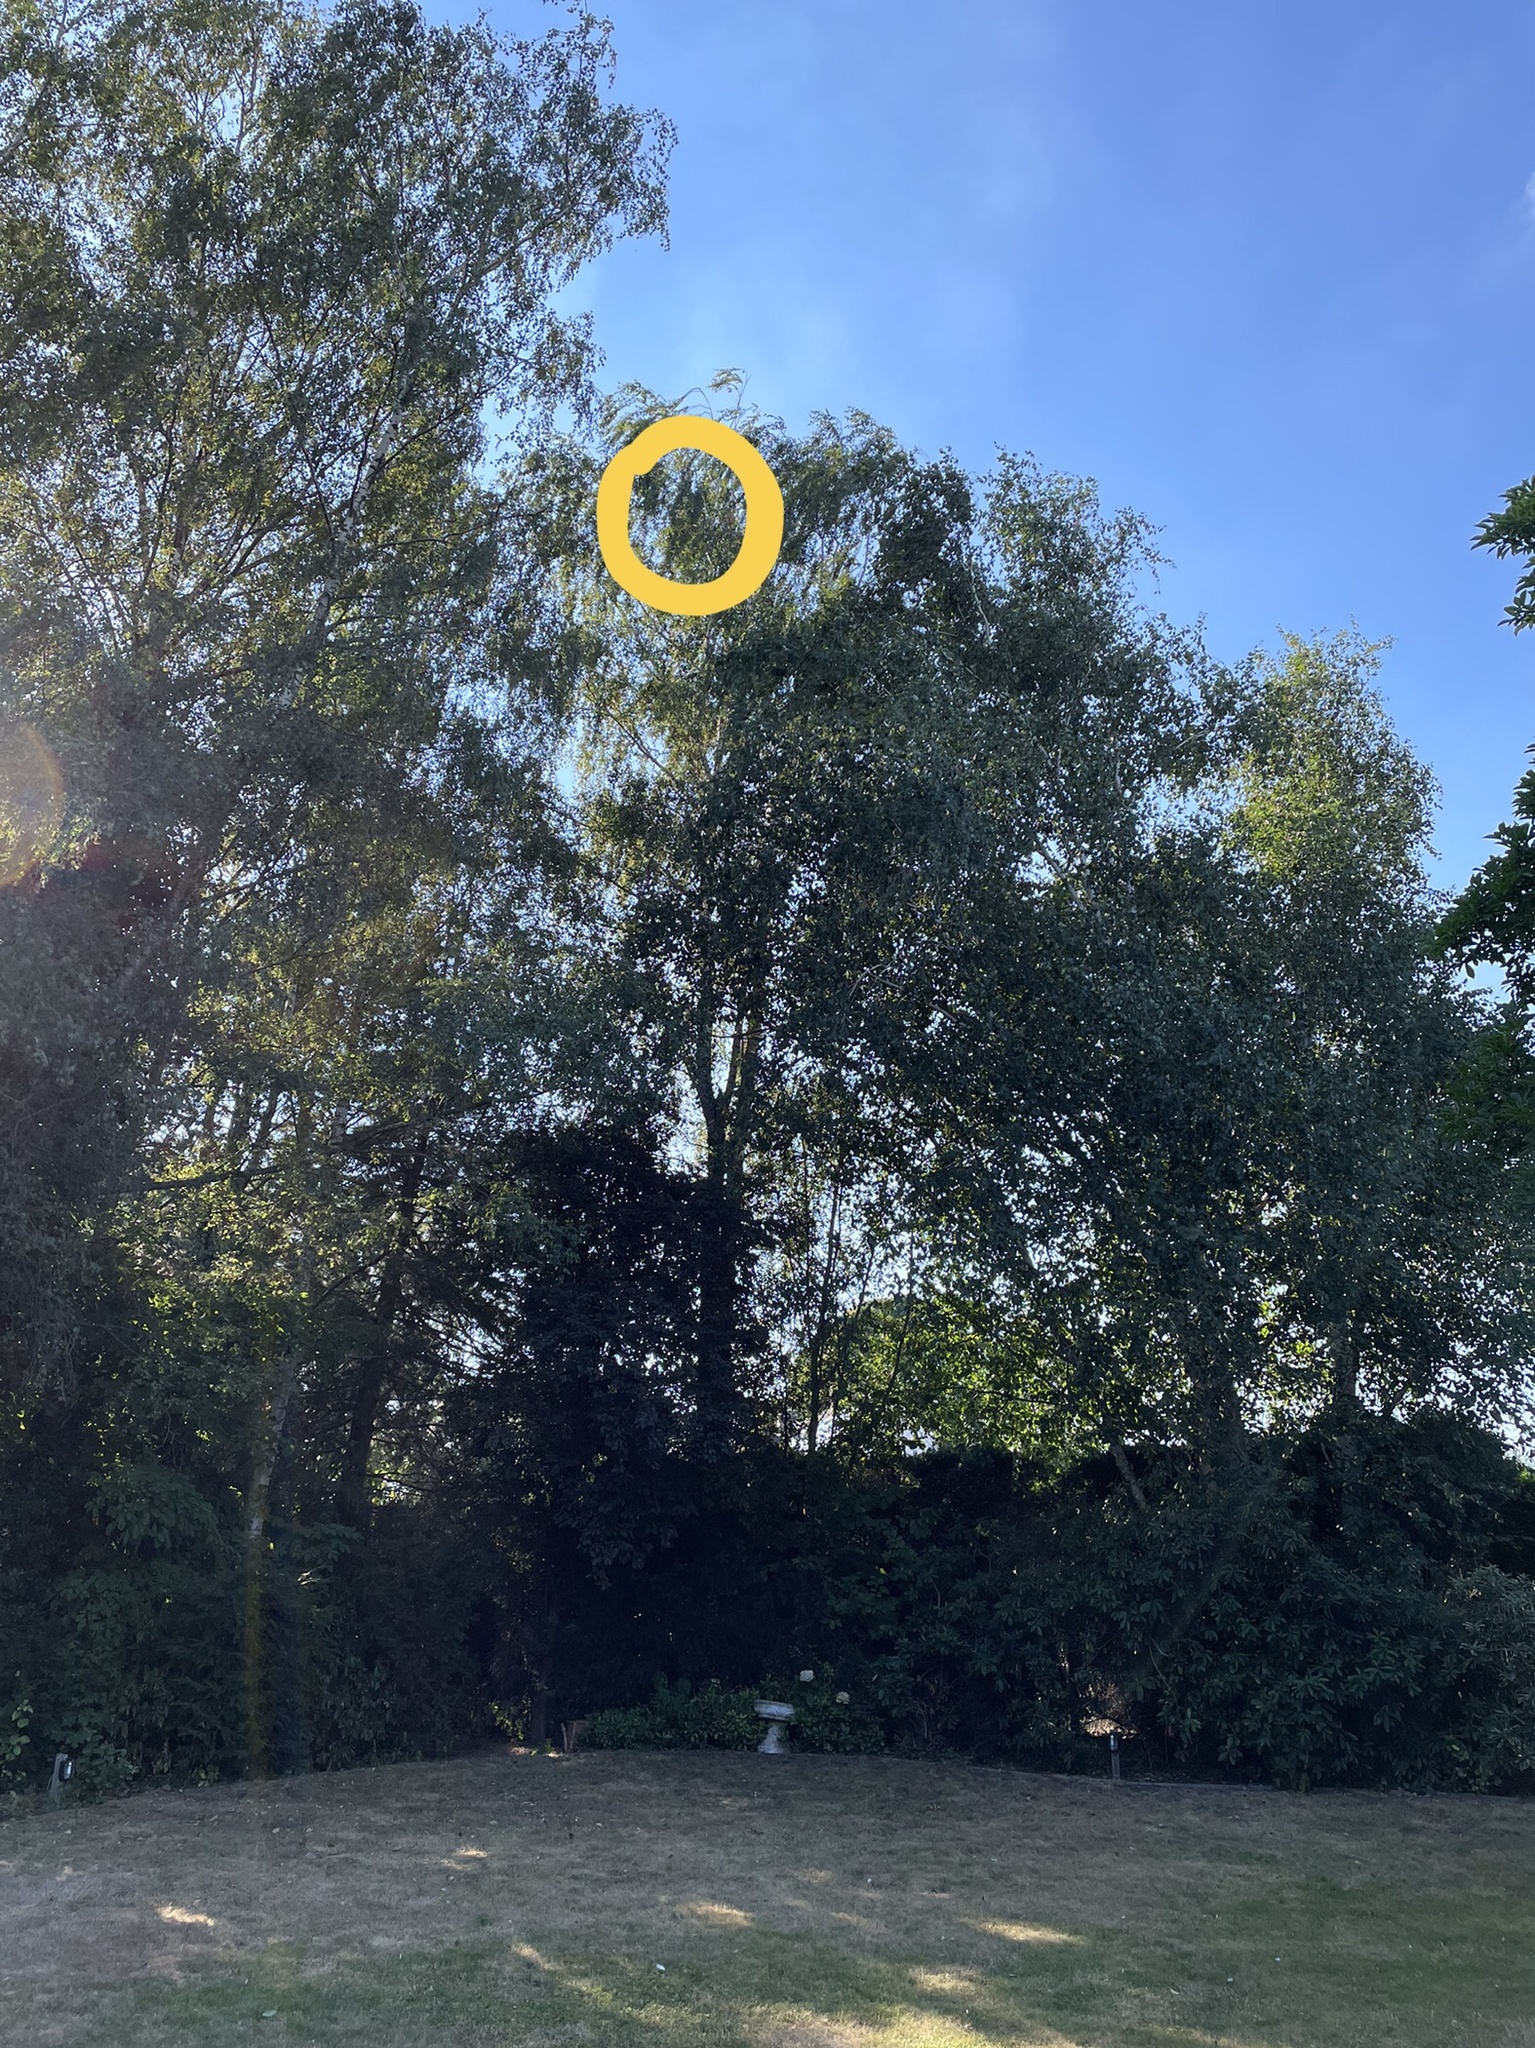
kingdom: Animalia
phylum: Arthropoda
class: Insecta
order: Hymenoptera
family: Vespidae
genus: Vespa
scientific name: Vespa velutina
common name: Asian hornet
